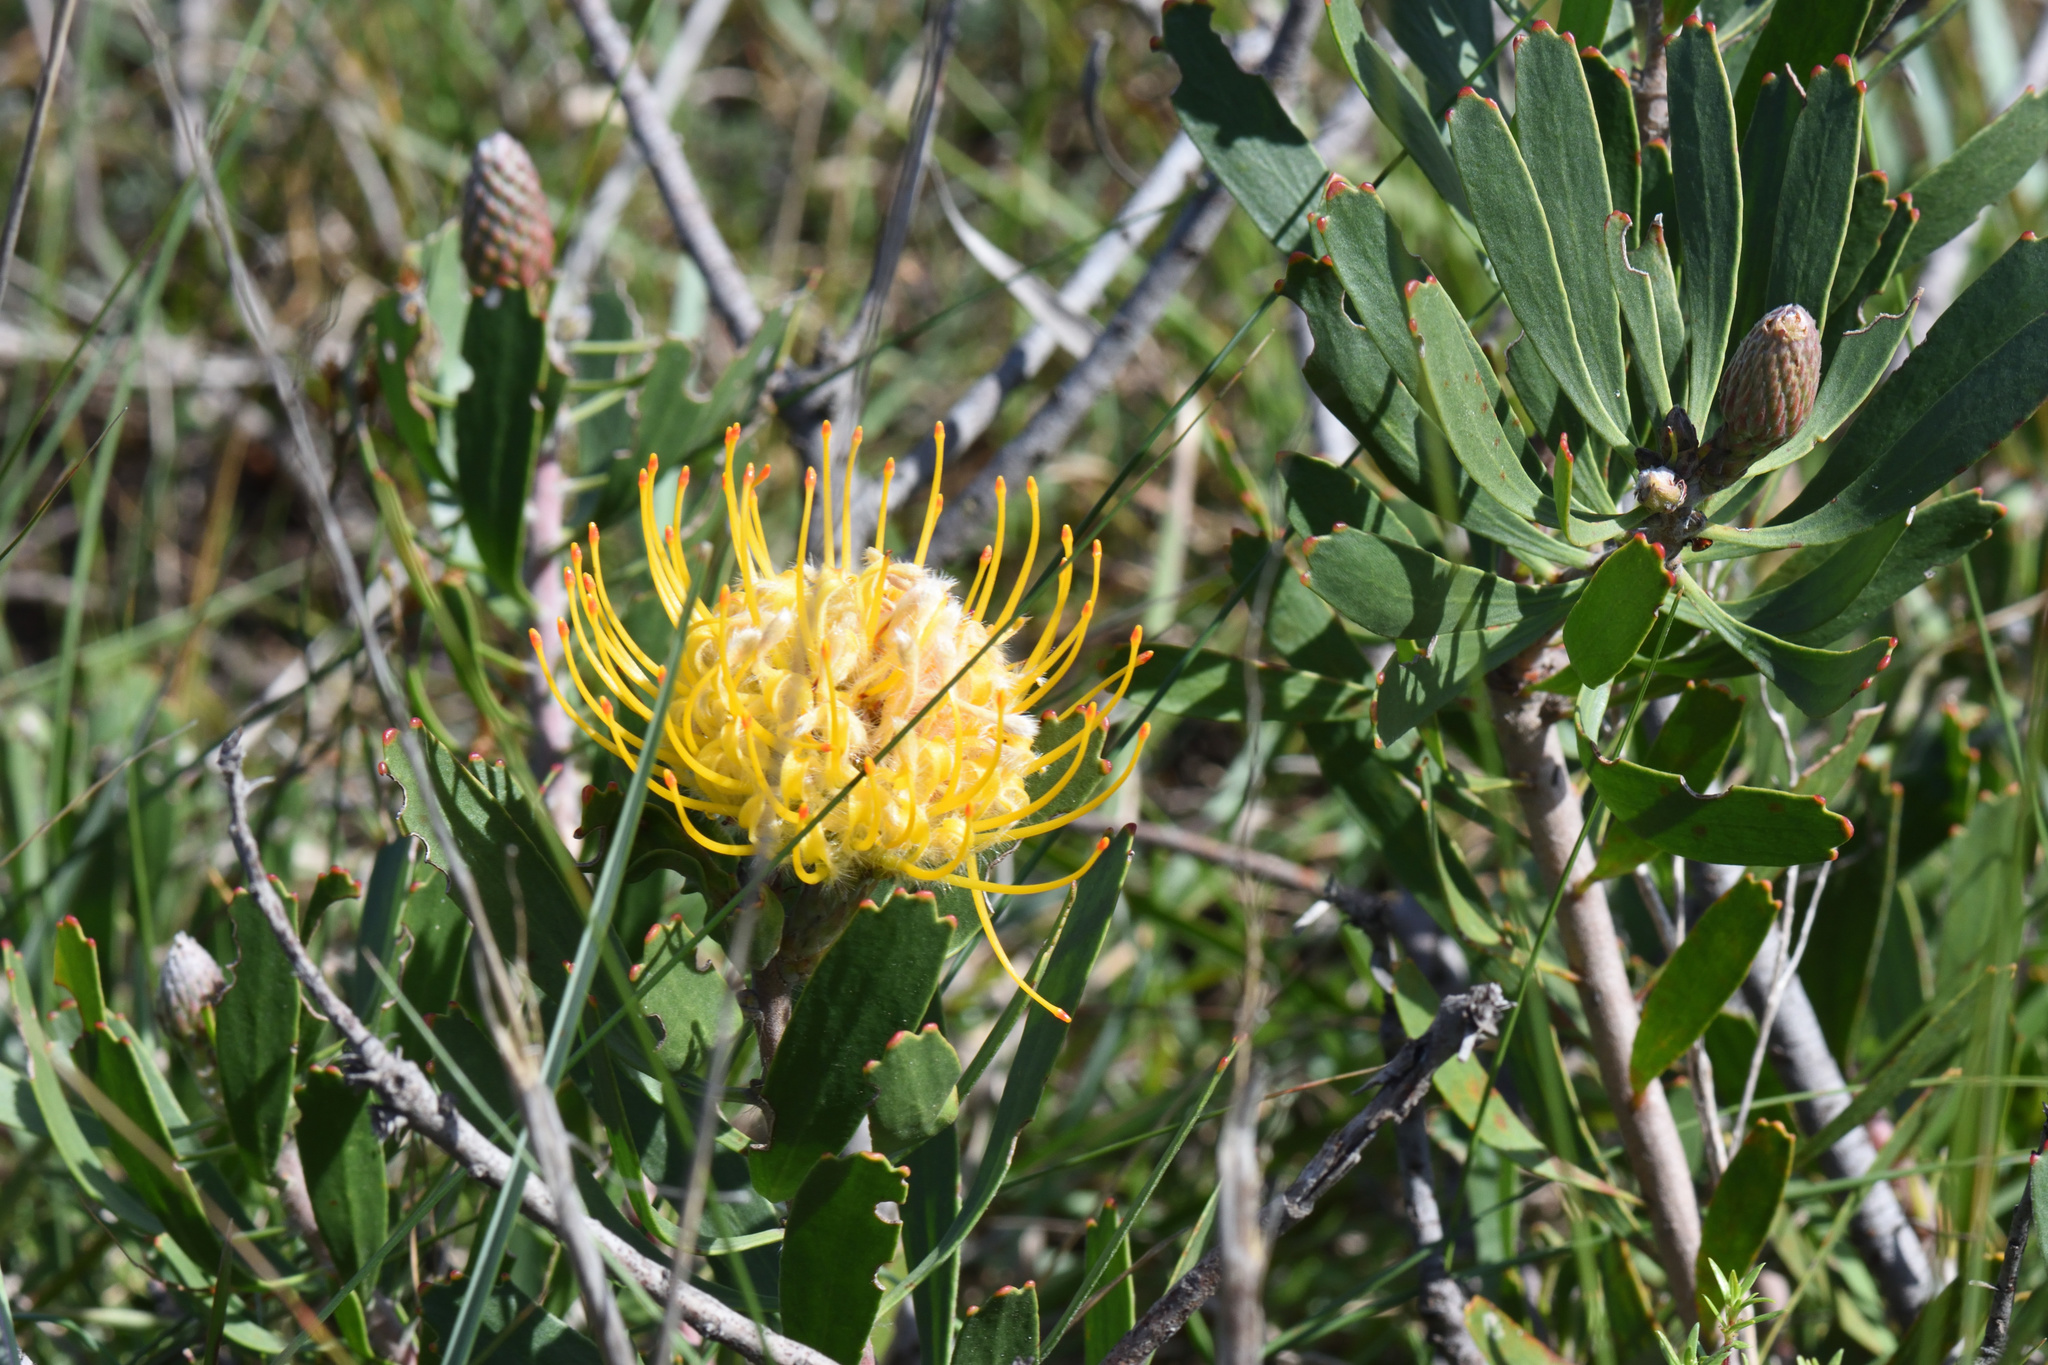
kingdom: Plantae
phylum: Tracheophyta
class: Magnoliopsida
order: Proteales
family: Proteaceae
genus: Leucospermum
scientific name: Leucospermum cuneiforme
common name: Common pincushion
